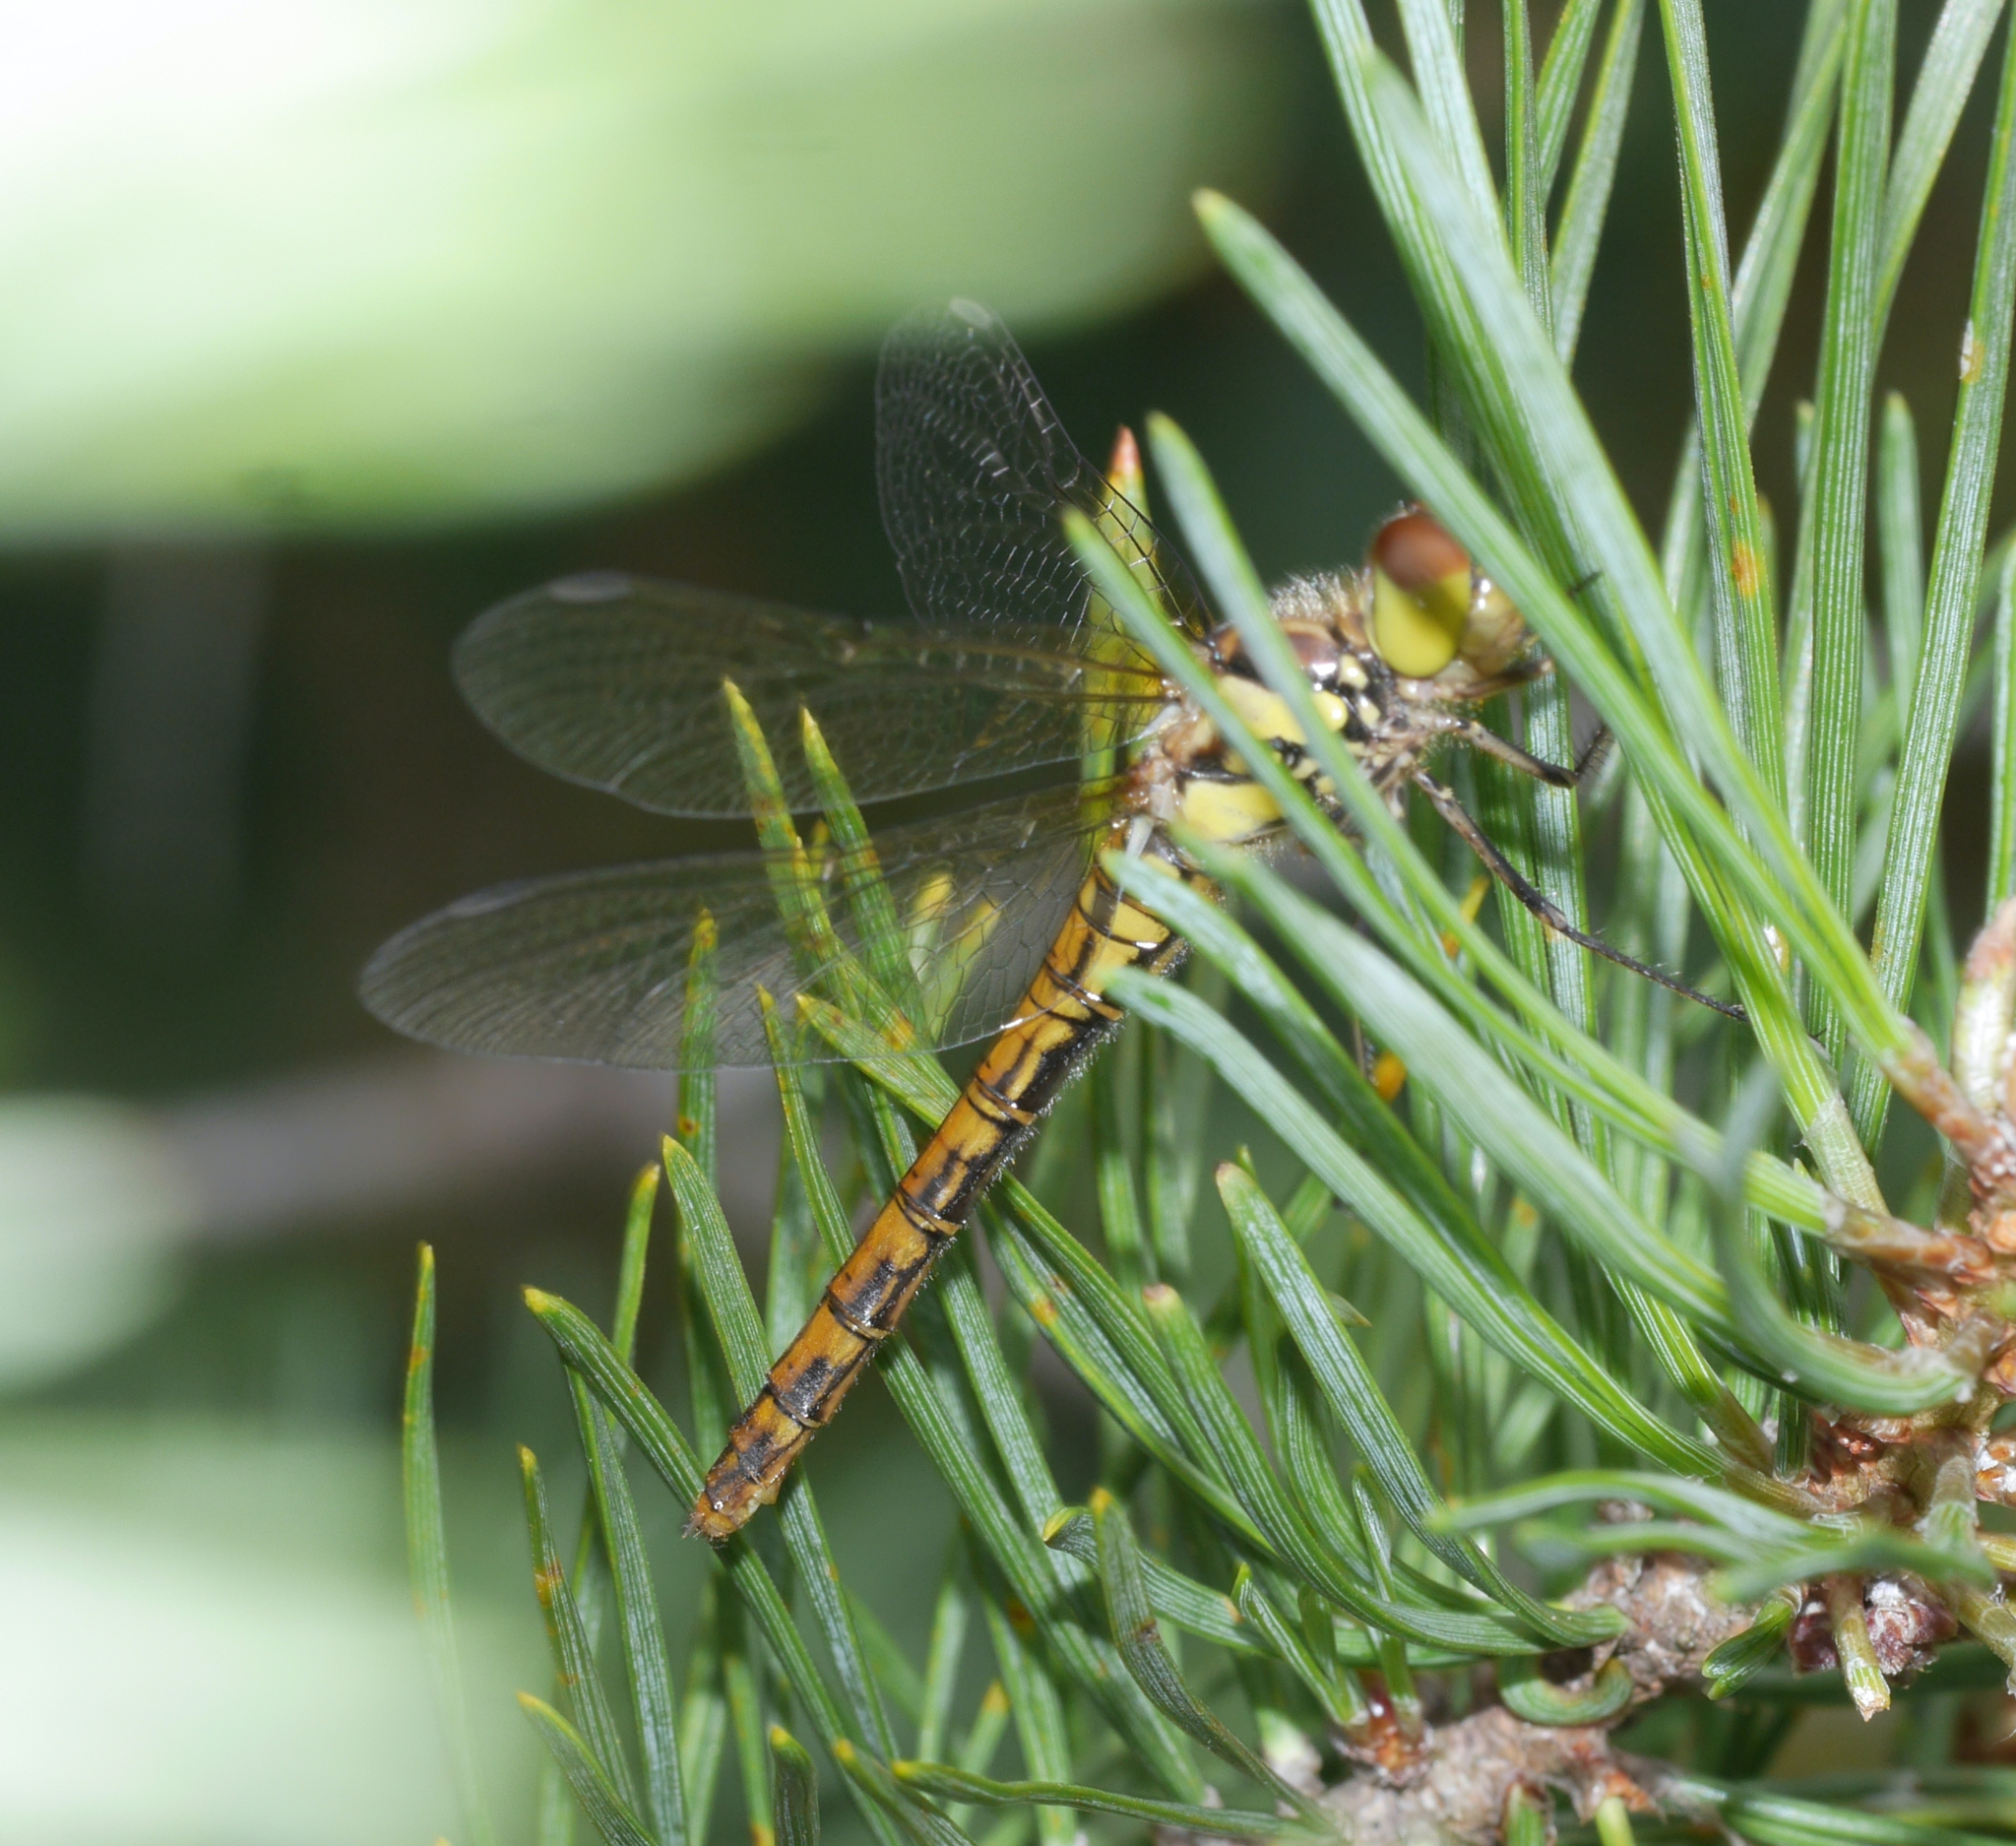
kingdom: Animalia
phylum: Arthropoda
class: Insecta
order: Odonata
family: Libellulidae
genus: Sympetrum
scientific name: Sympetrum striolatum
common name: Common darter
